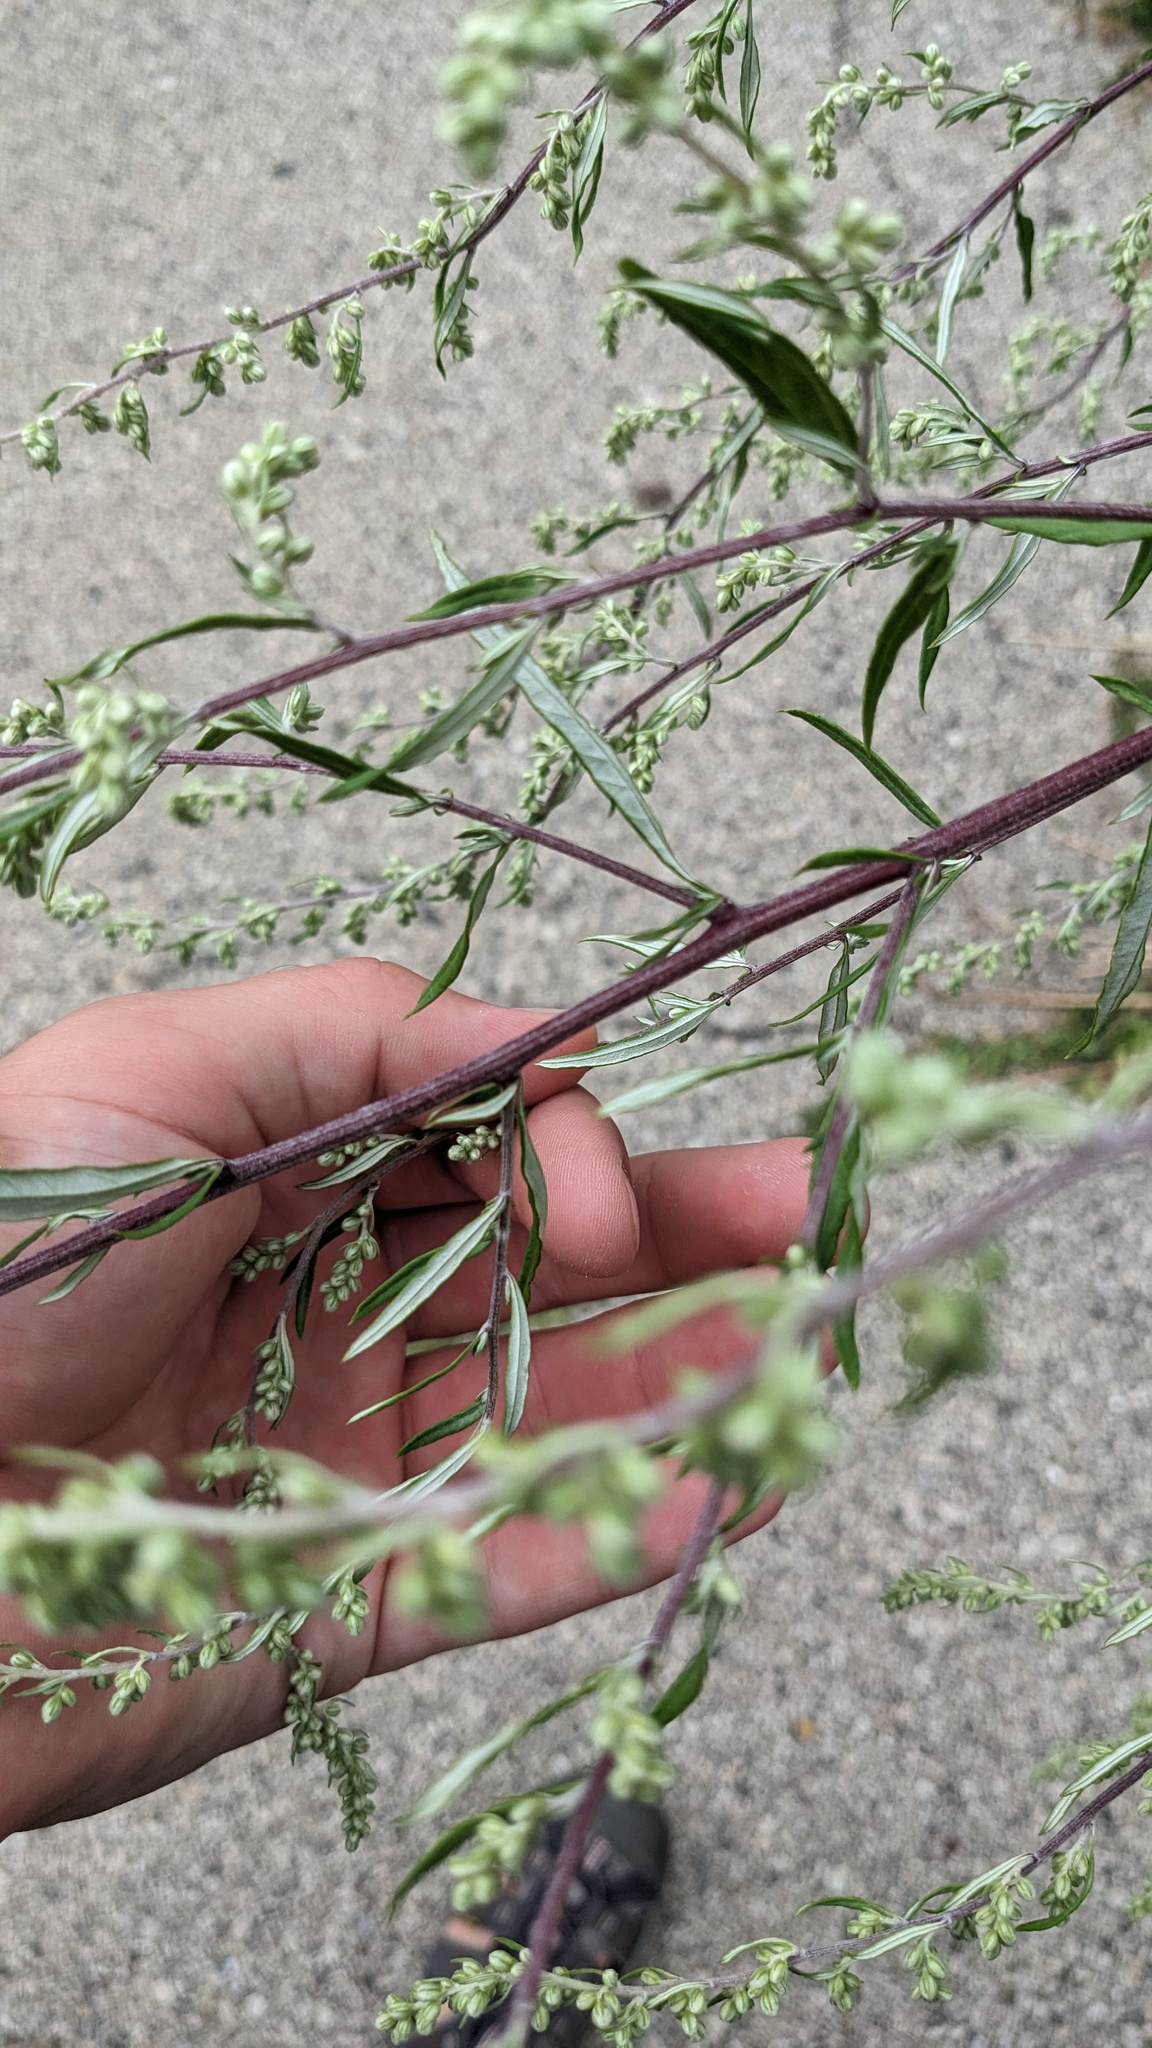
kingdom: Plantae
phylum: Tracheophyta
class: Magnoliopsida
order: Asterales
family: Asteraceae
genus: Artemisia
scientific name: Artemisia vulgaris
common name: Mugwort
